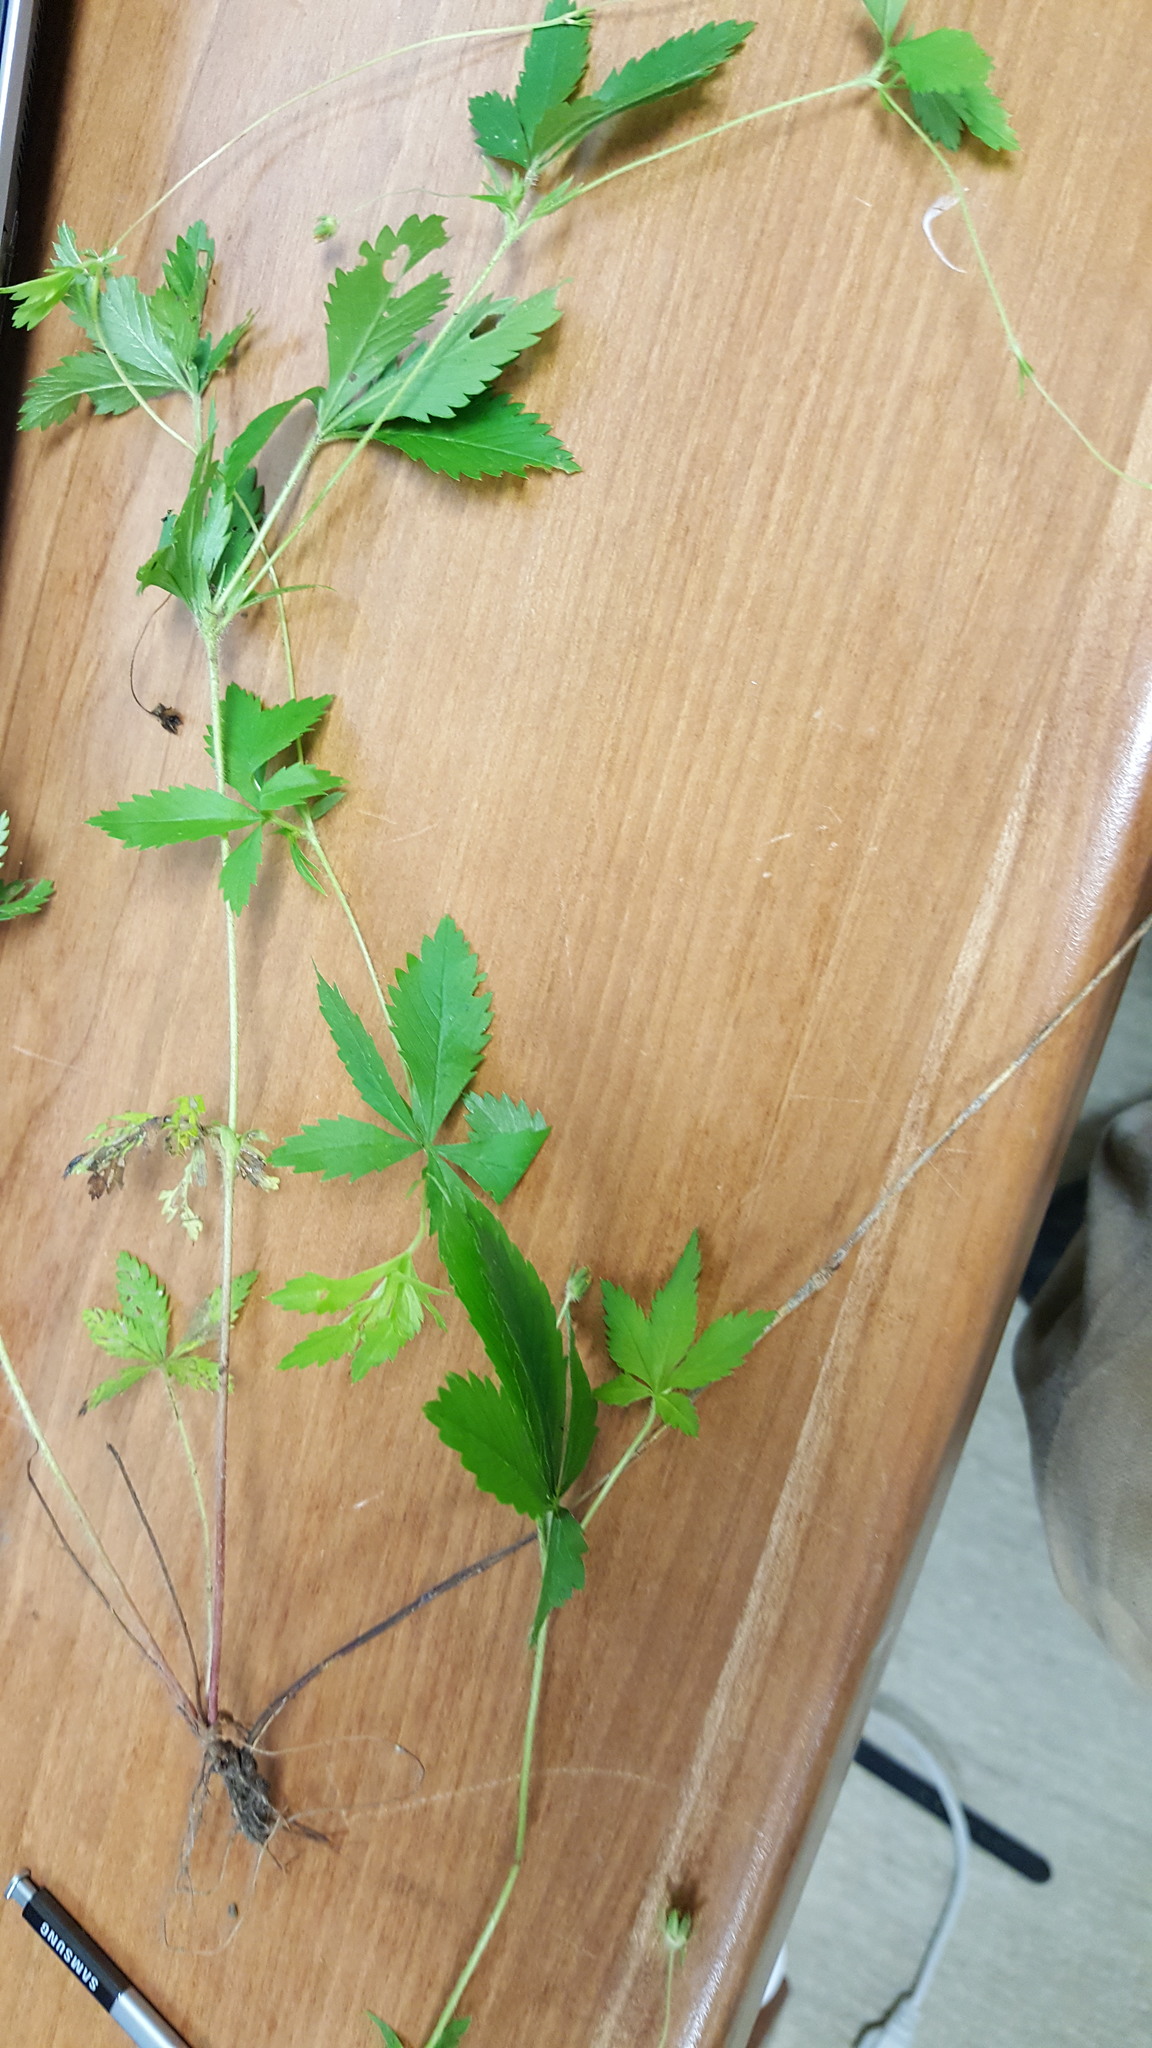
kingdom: Plantae
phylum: Tracheophyta
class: Magnoliopsida
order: Rosales
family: Rosaceae
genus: Potentilla
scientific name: Potentilla simplex
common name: Old field cinquefoil
